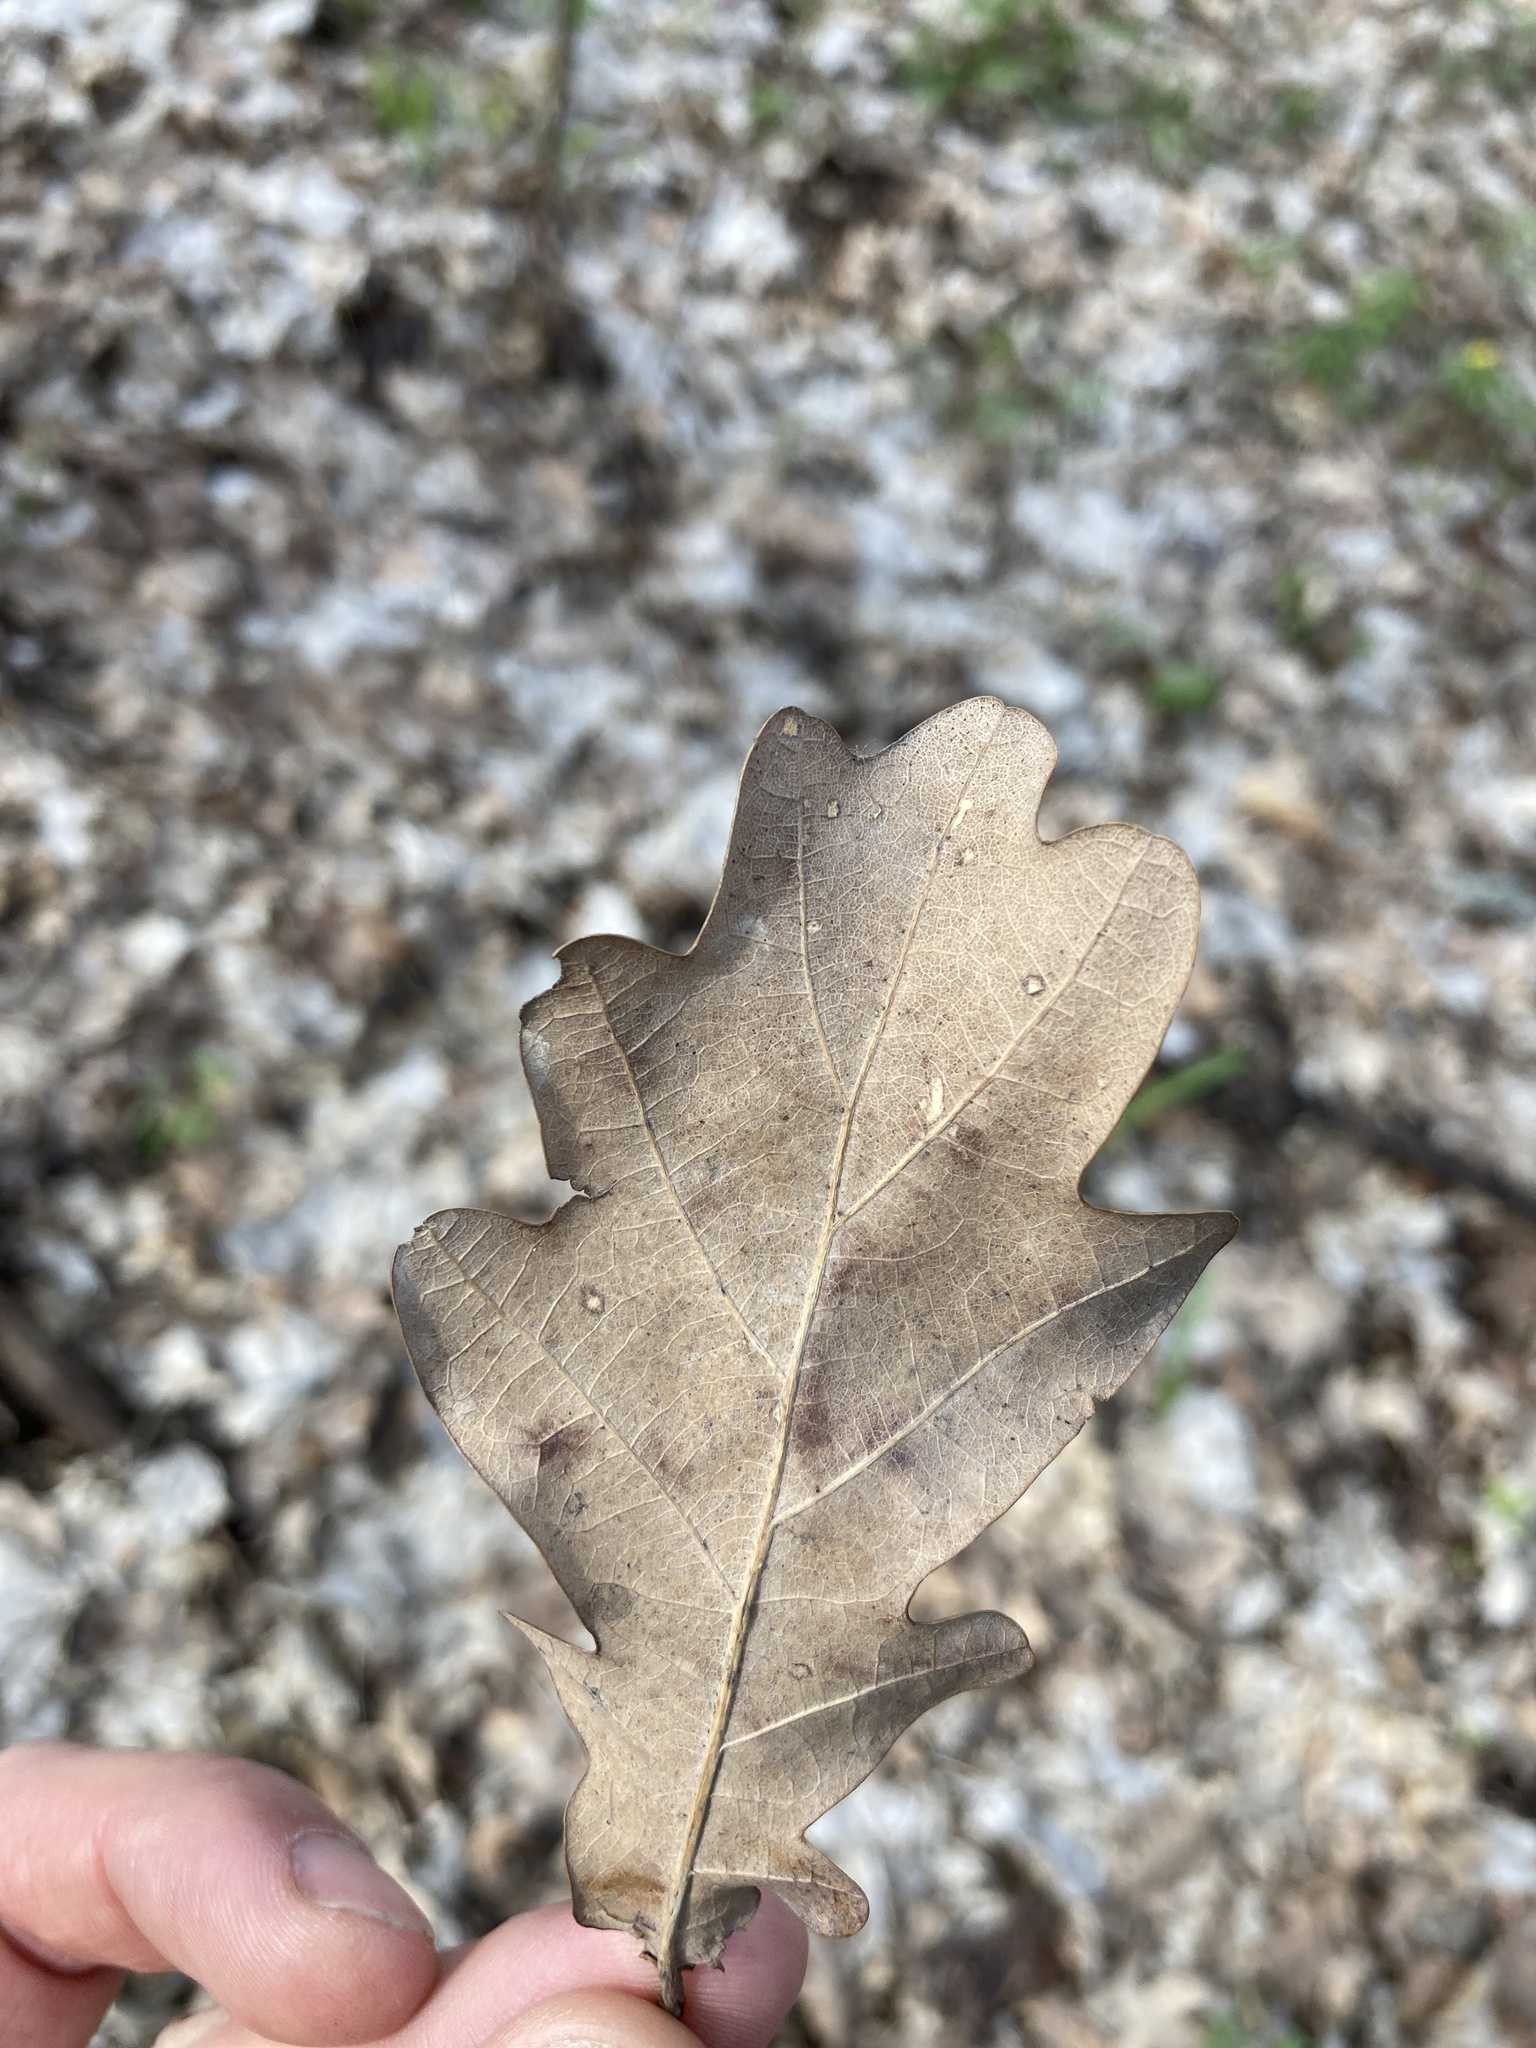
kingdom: Plantae
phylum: Tracheophyta
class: Magnoliopsida
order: Fagales
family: Fagaceae
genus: Quercus
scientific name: Quercus robur
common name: Pedunculate oak
